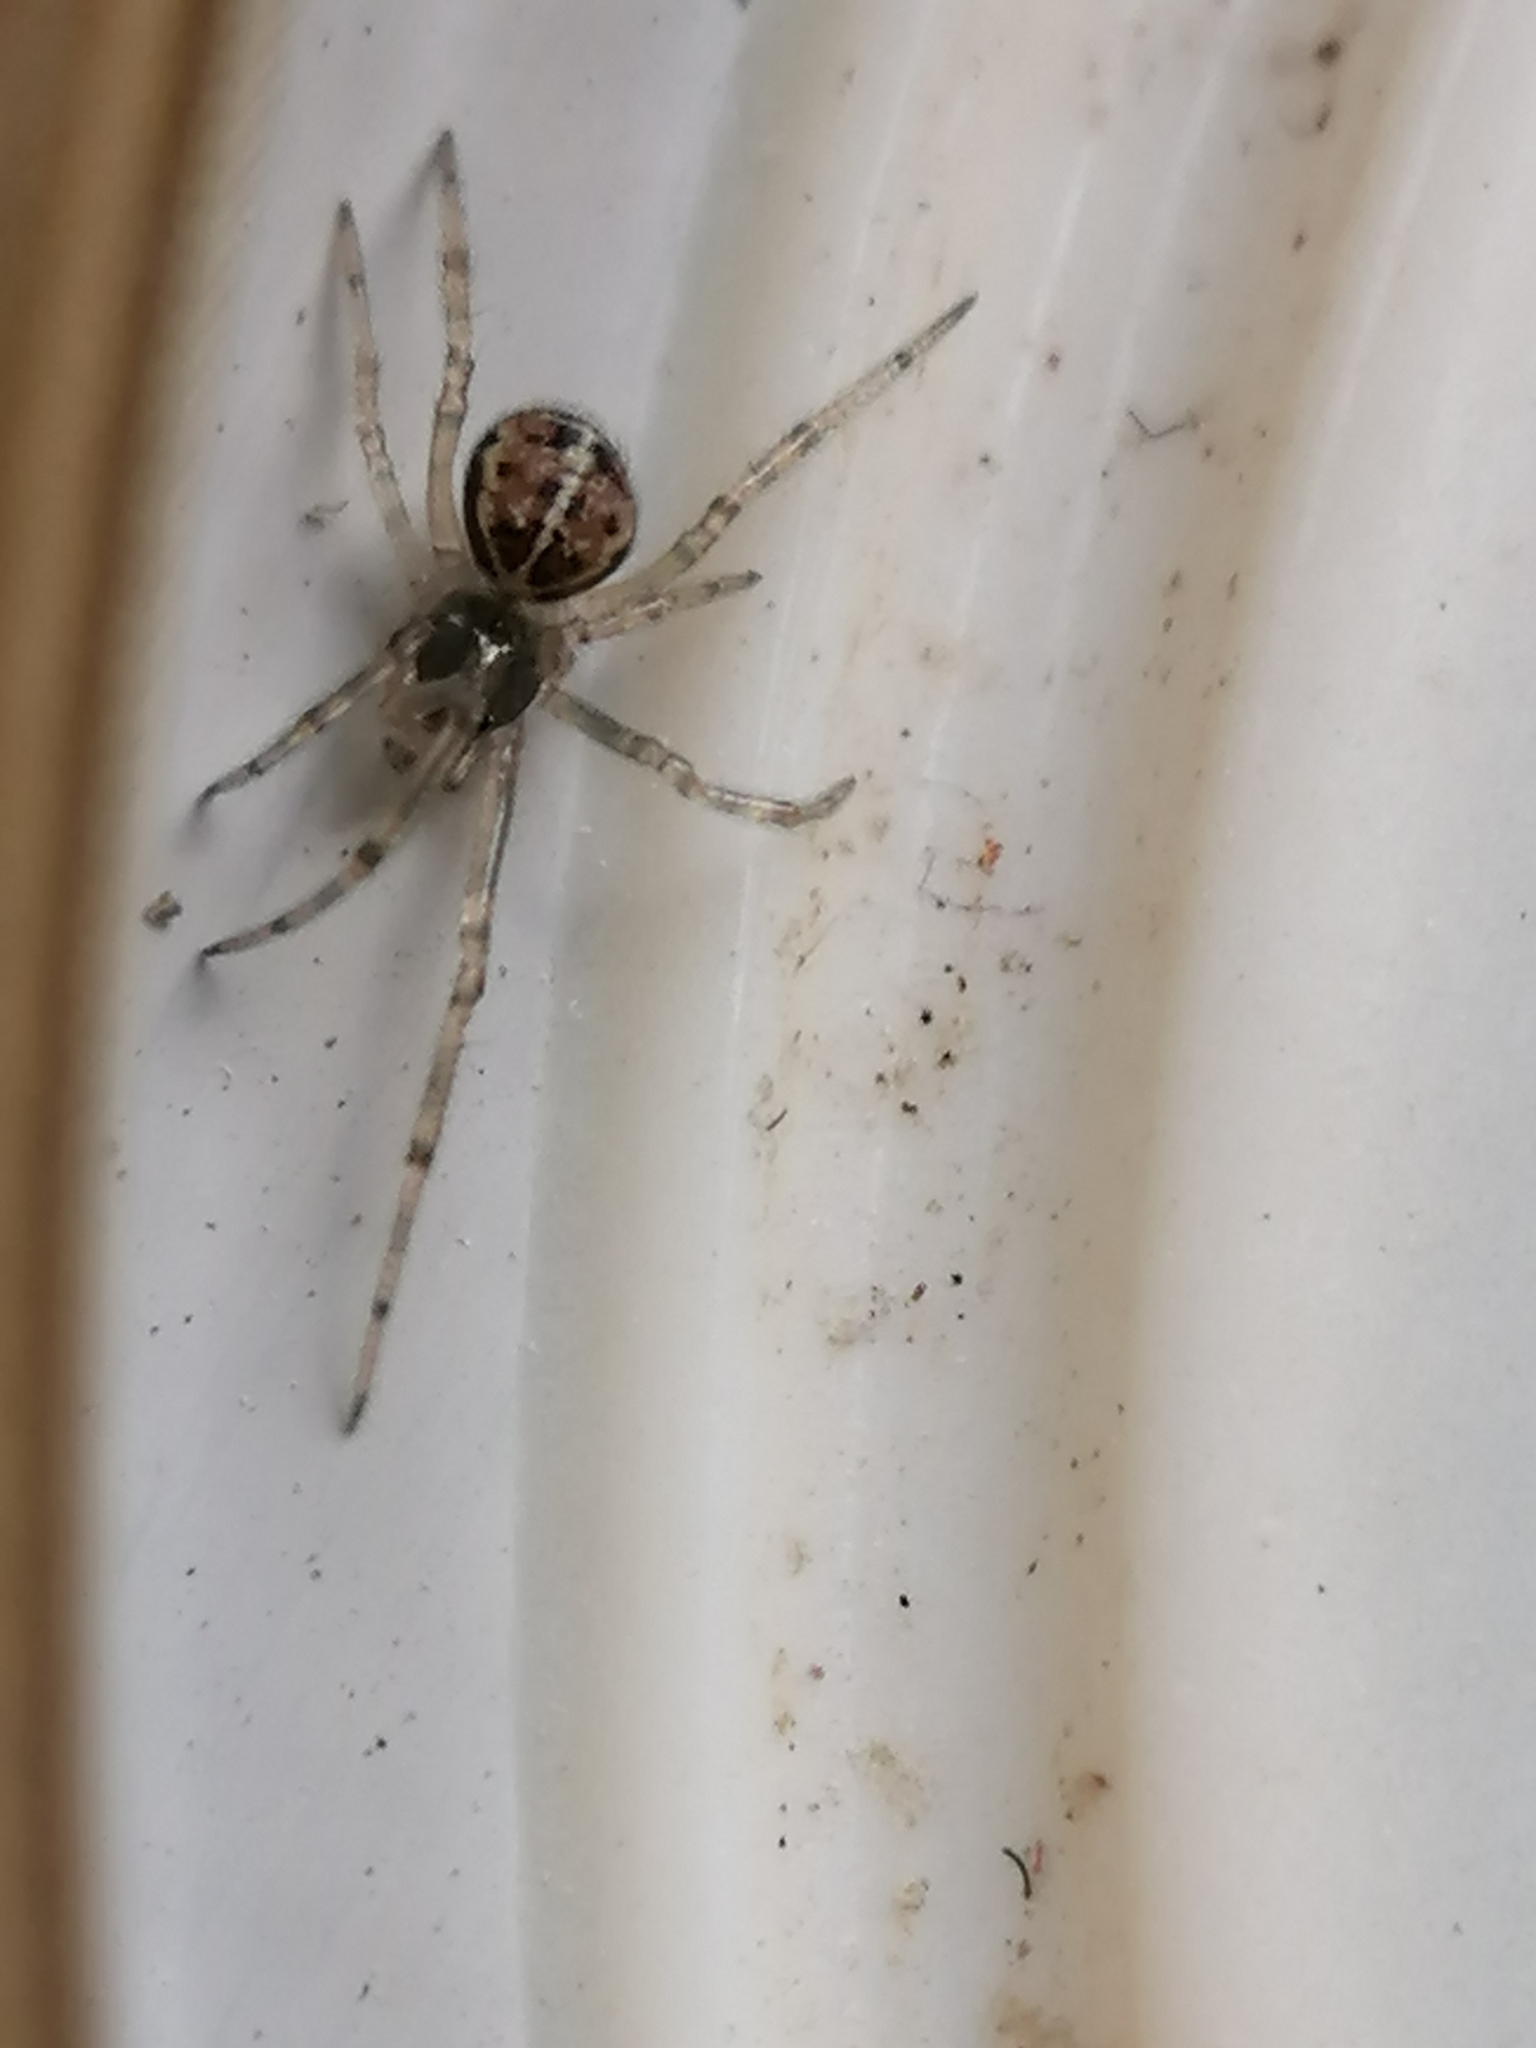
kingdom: Animalia
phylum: Arthropoda
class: Arachnida
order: Araneae
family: Theridiidae
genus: Steatoda
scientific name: Steatoda castanea
